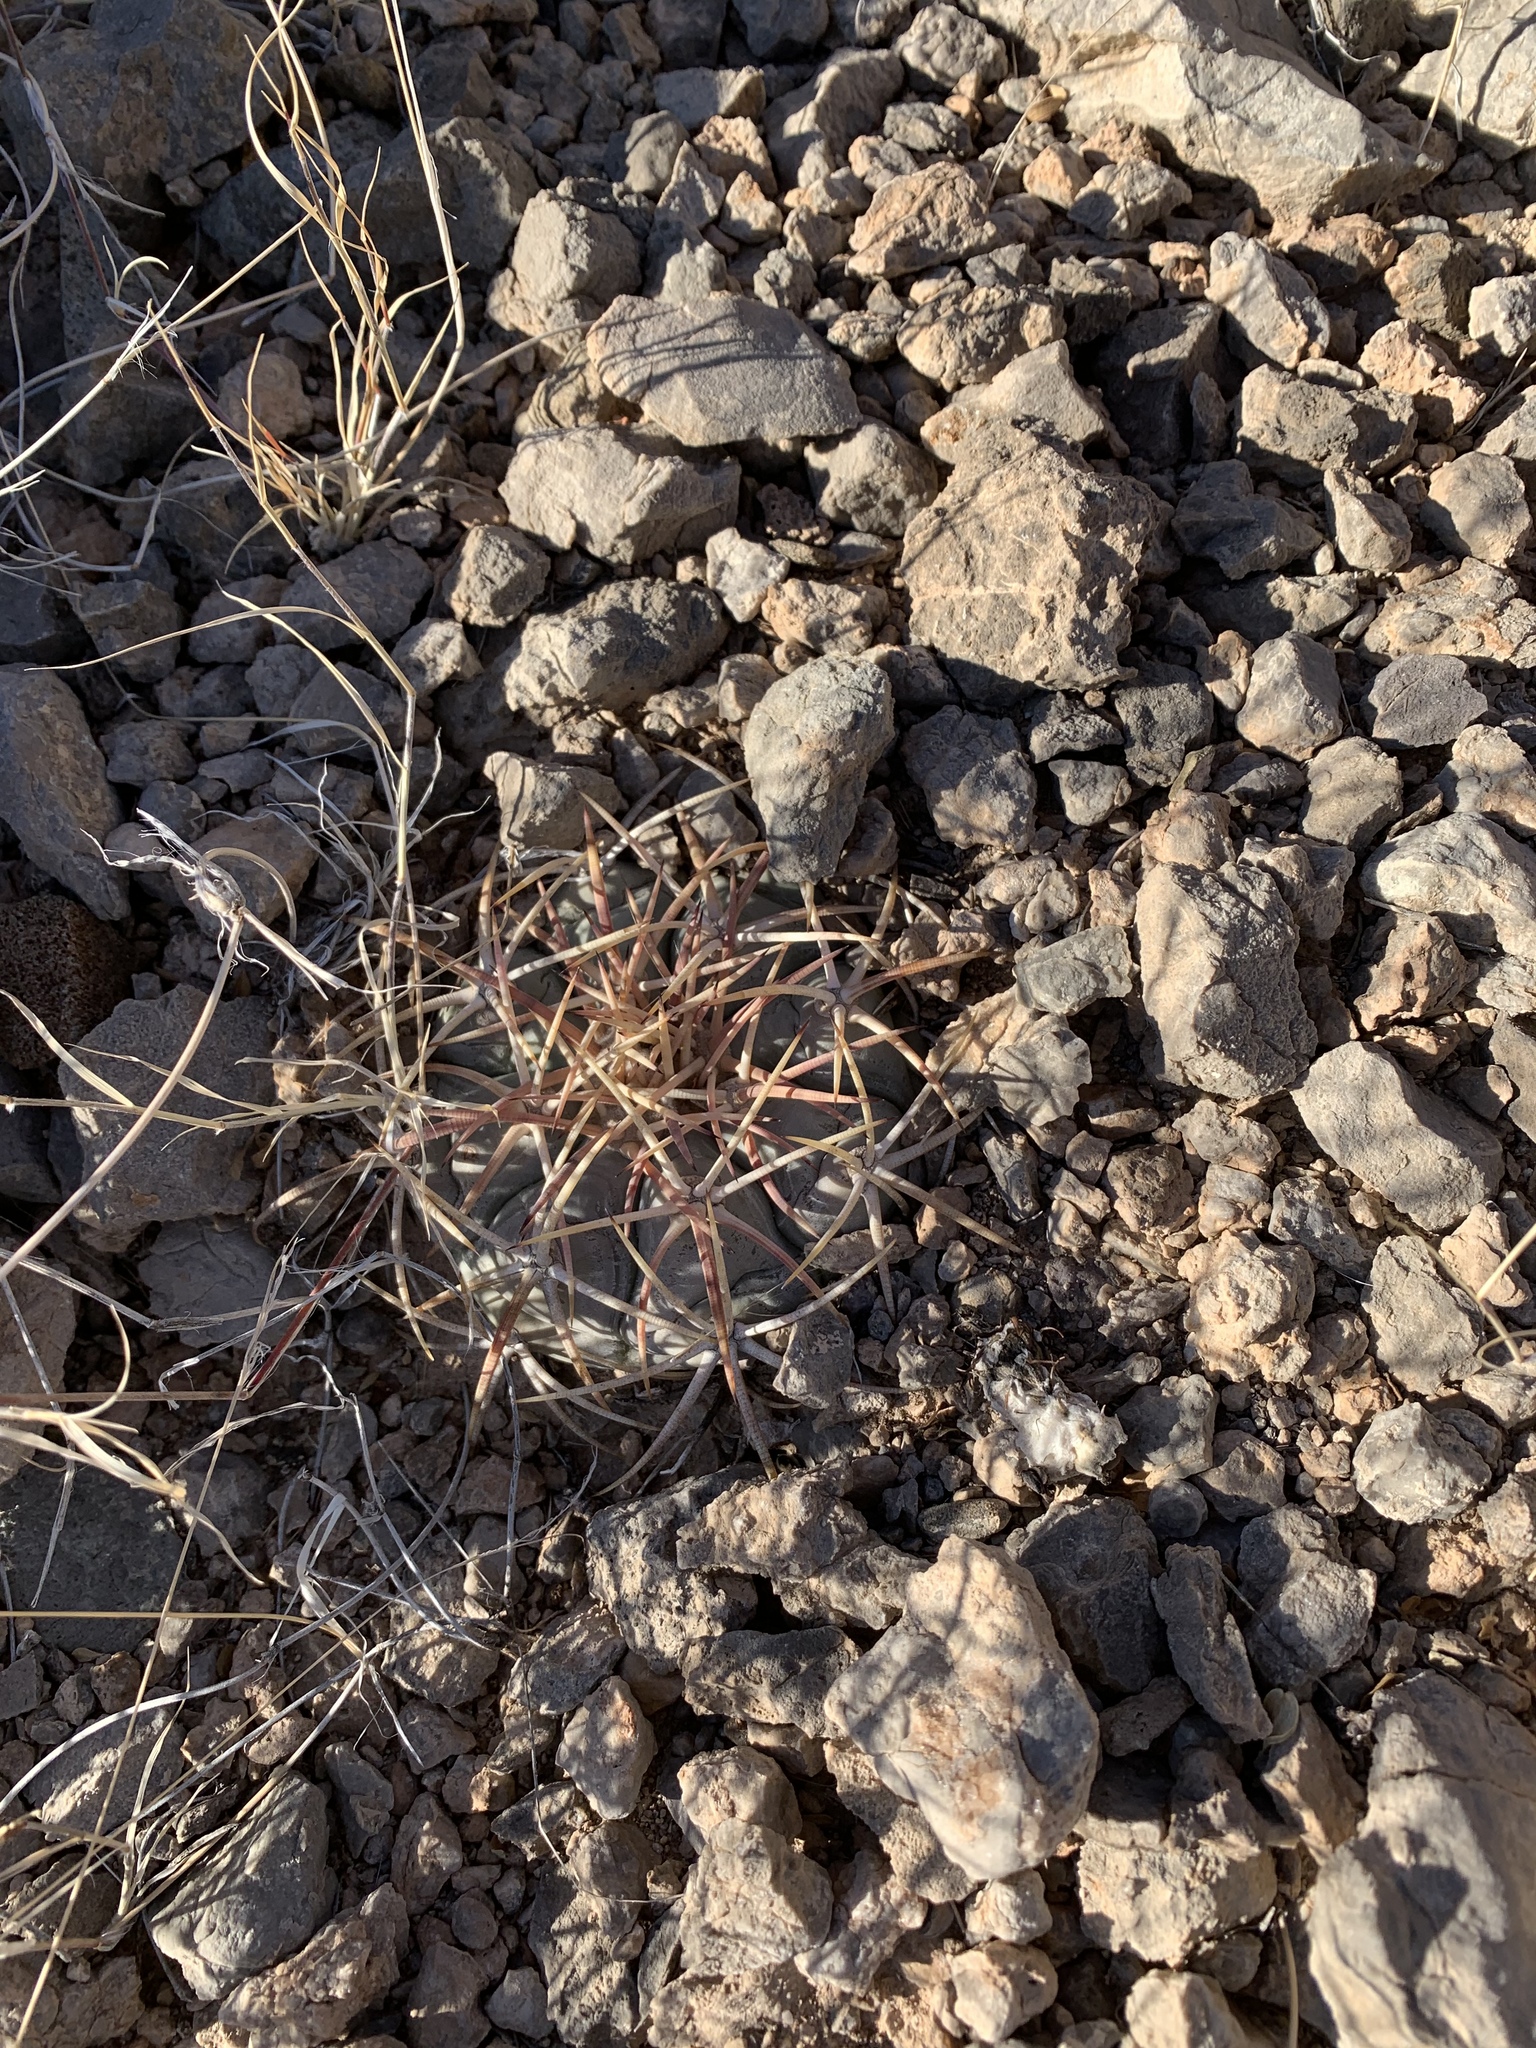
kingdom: Plantae
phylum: Tracheophyta
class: Magnoliopsida
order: Caryophyllales
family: Cactaceae
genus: Echinocactus
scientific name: Echinocactus horizonthalonius
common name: Devilshead
